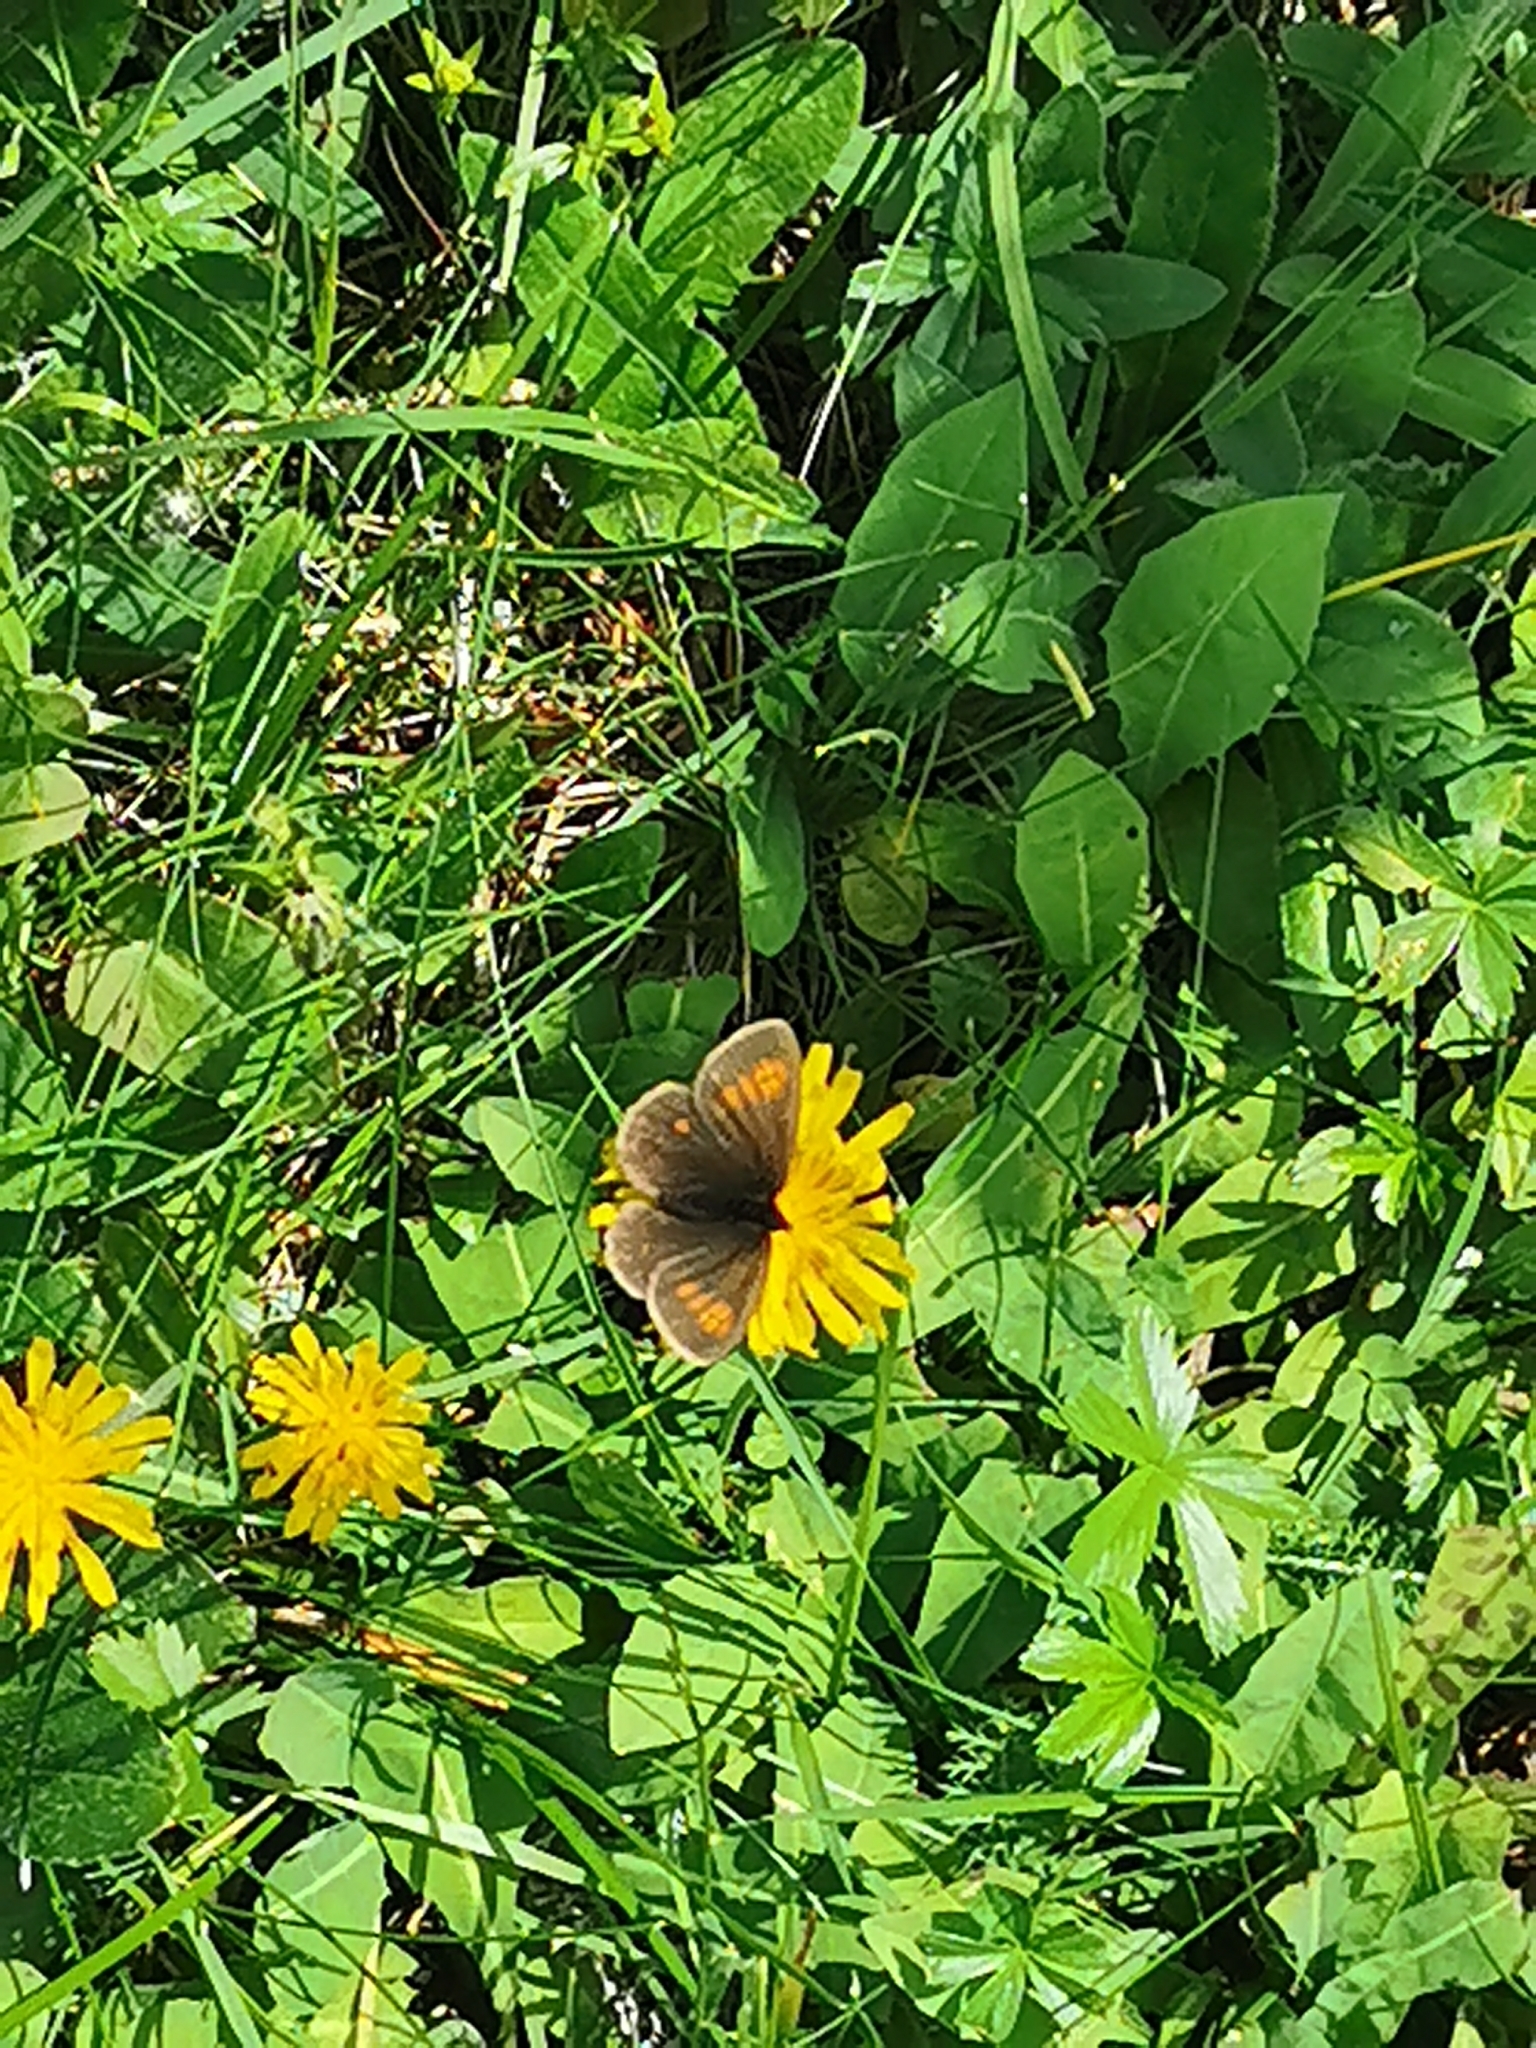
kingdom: Animalia
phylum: Arthropoda
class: Insecta
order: Lepidoptera
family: Nymphalidae
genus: Erebia
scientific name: Erebia eriphyle
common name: Eriphyle ringlet
